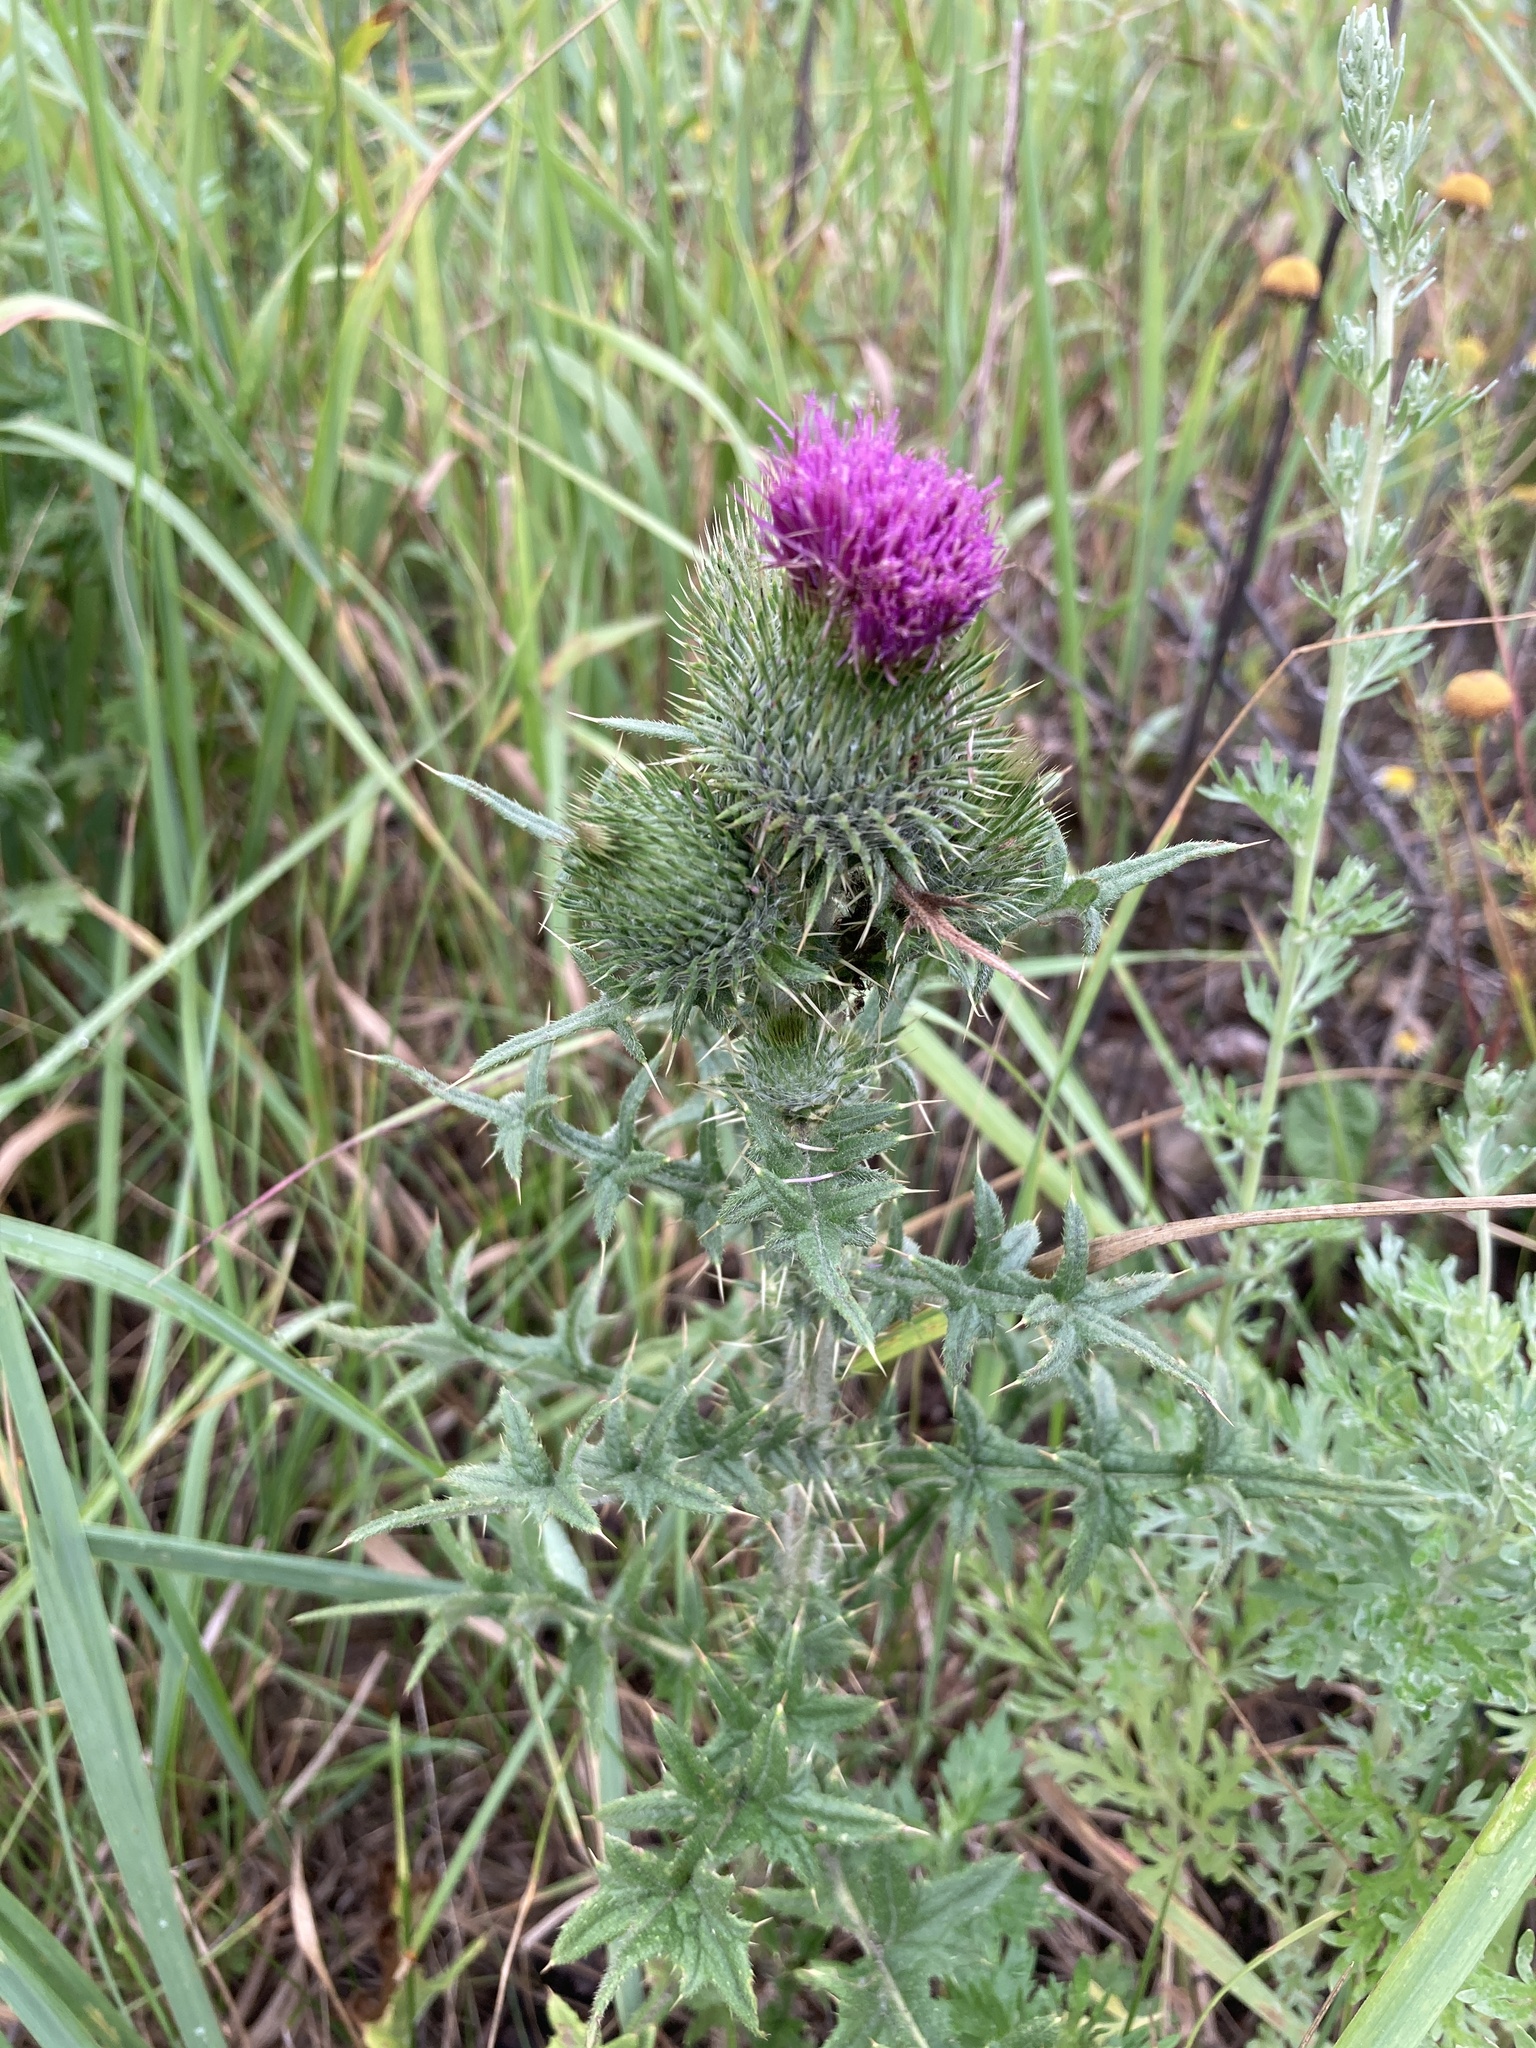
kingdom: Plantae
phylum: Tracheophyta
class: Magnoliopsida
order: Asterales
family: Asteraceae
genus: Cirsium
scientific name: Cirsium vulgare
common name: Bull thistle
